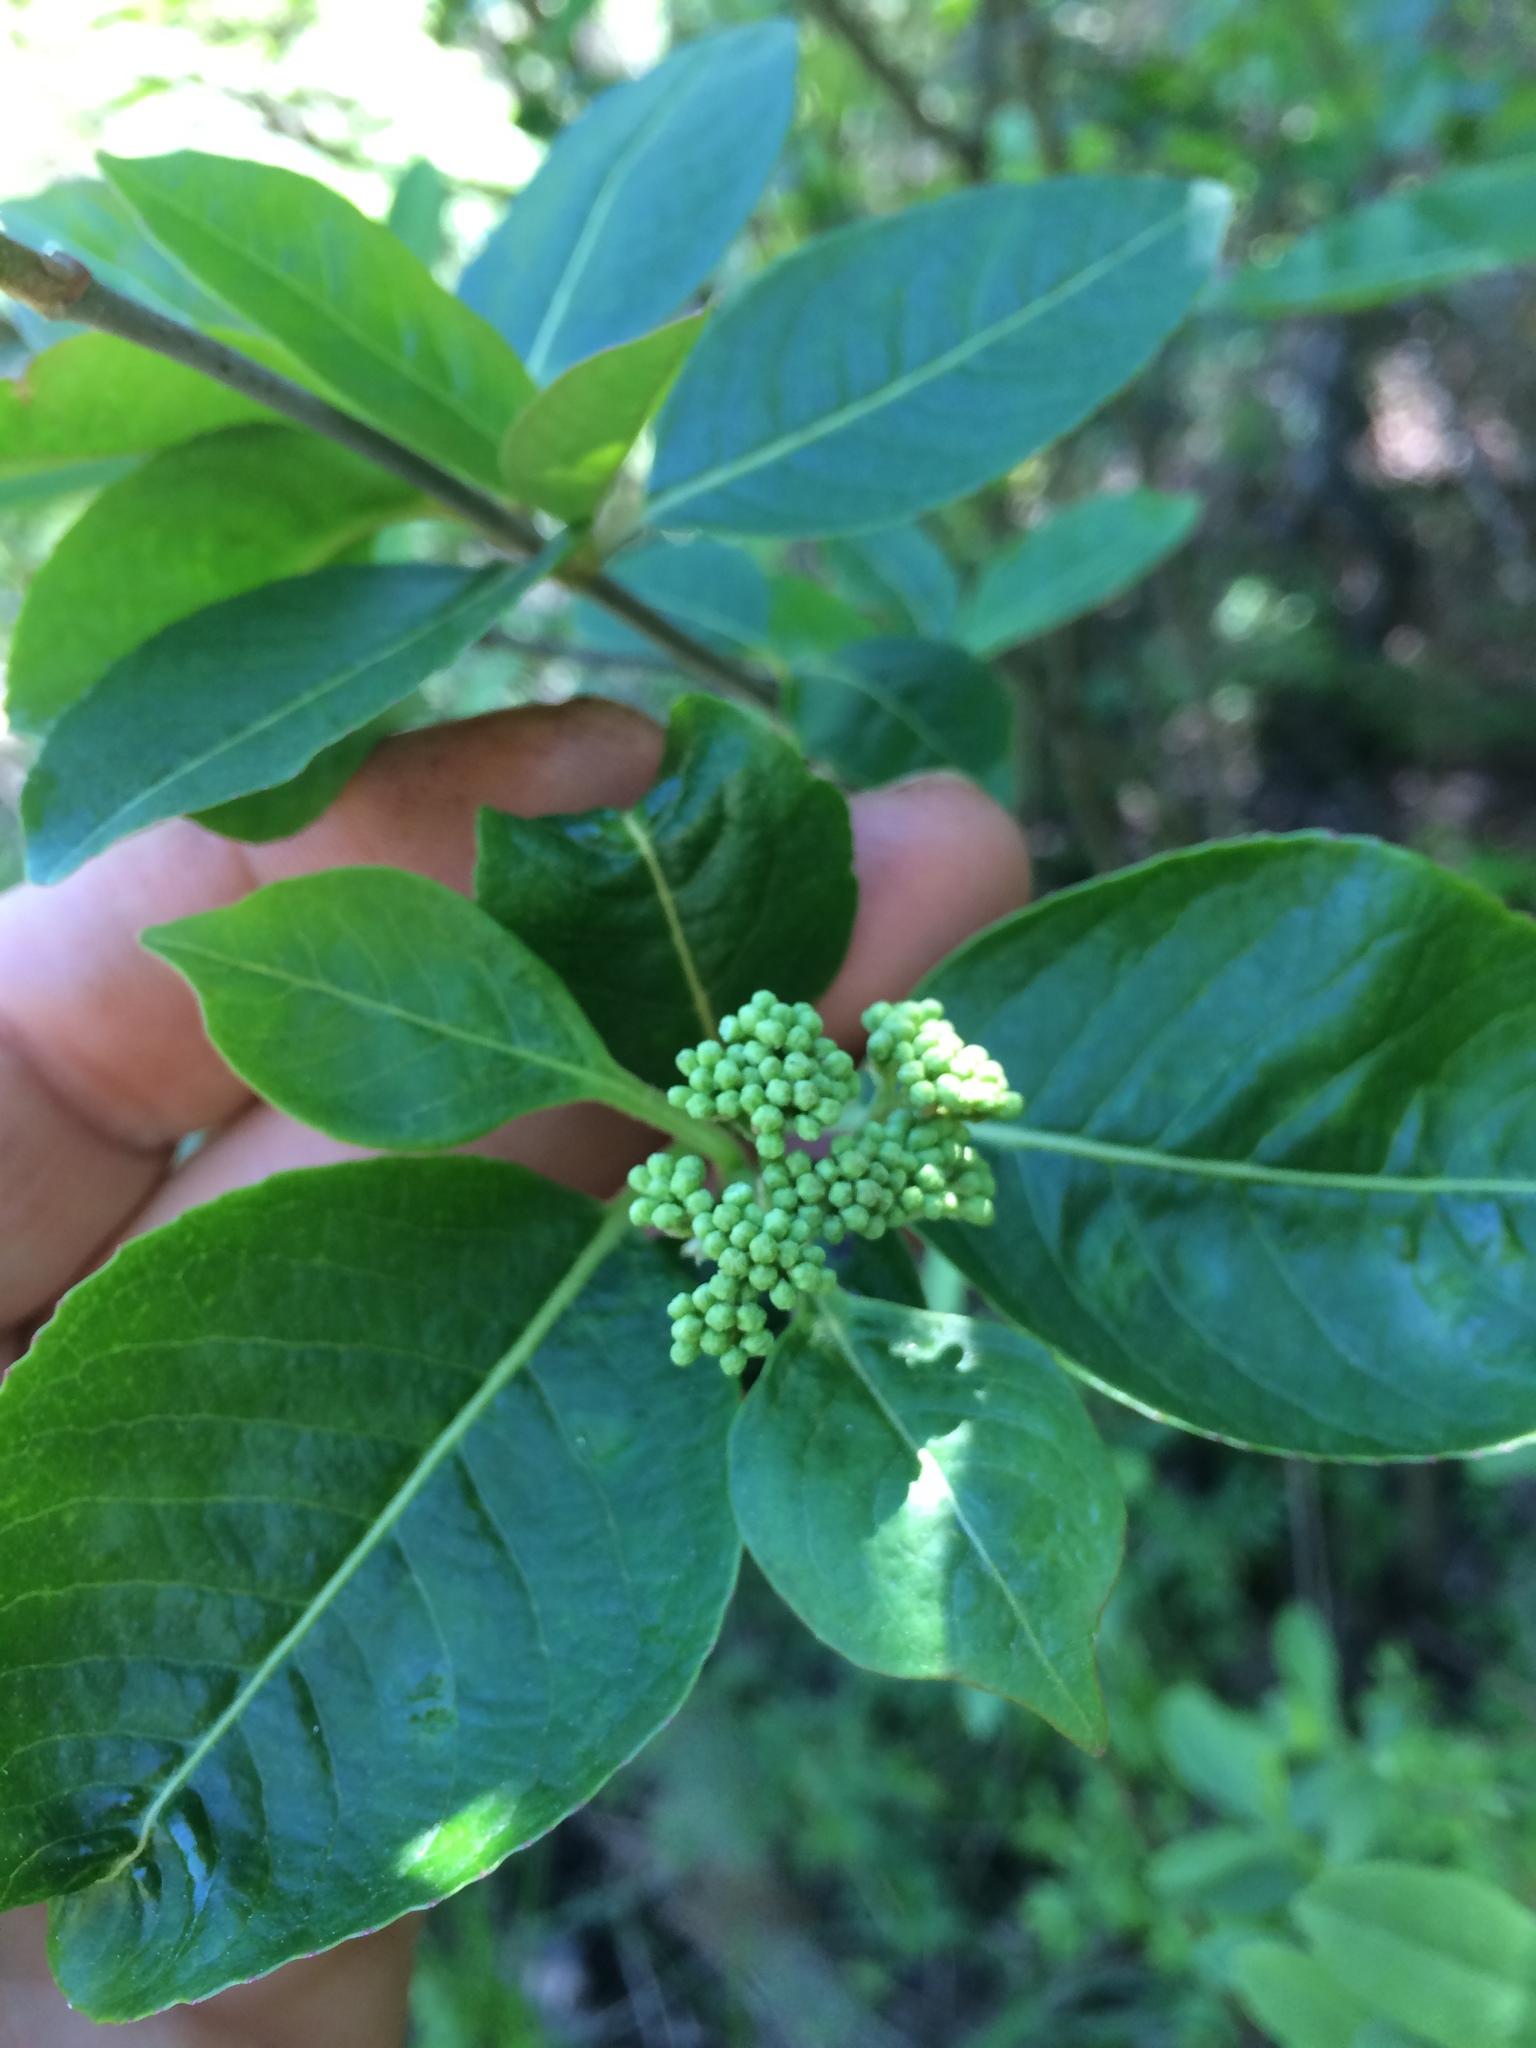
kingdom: Plantae
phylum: Tracheophyta
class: Magnoliopsida
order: Dipsacales
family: Viburnaceae
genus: Viburnum
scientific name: Viburnum cassinoides
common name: Swamp haw
